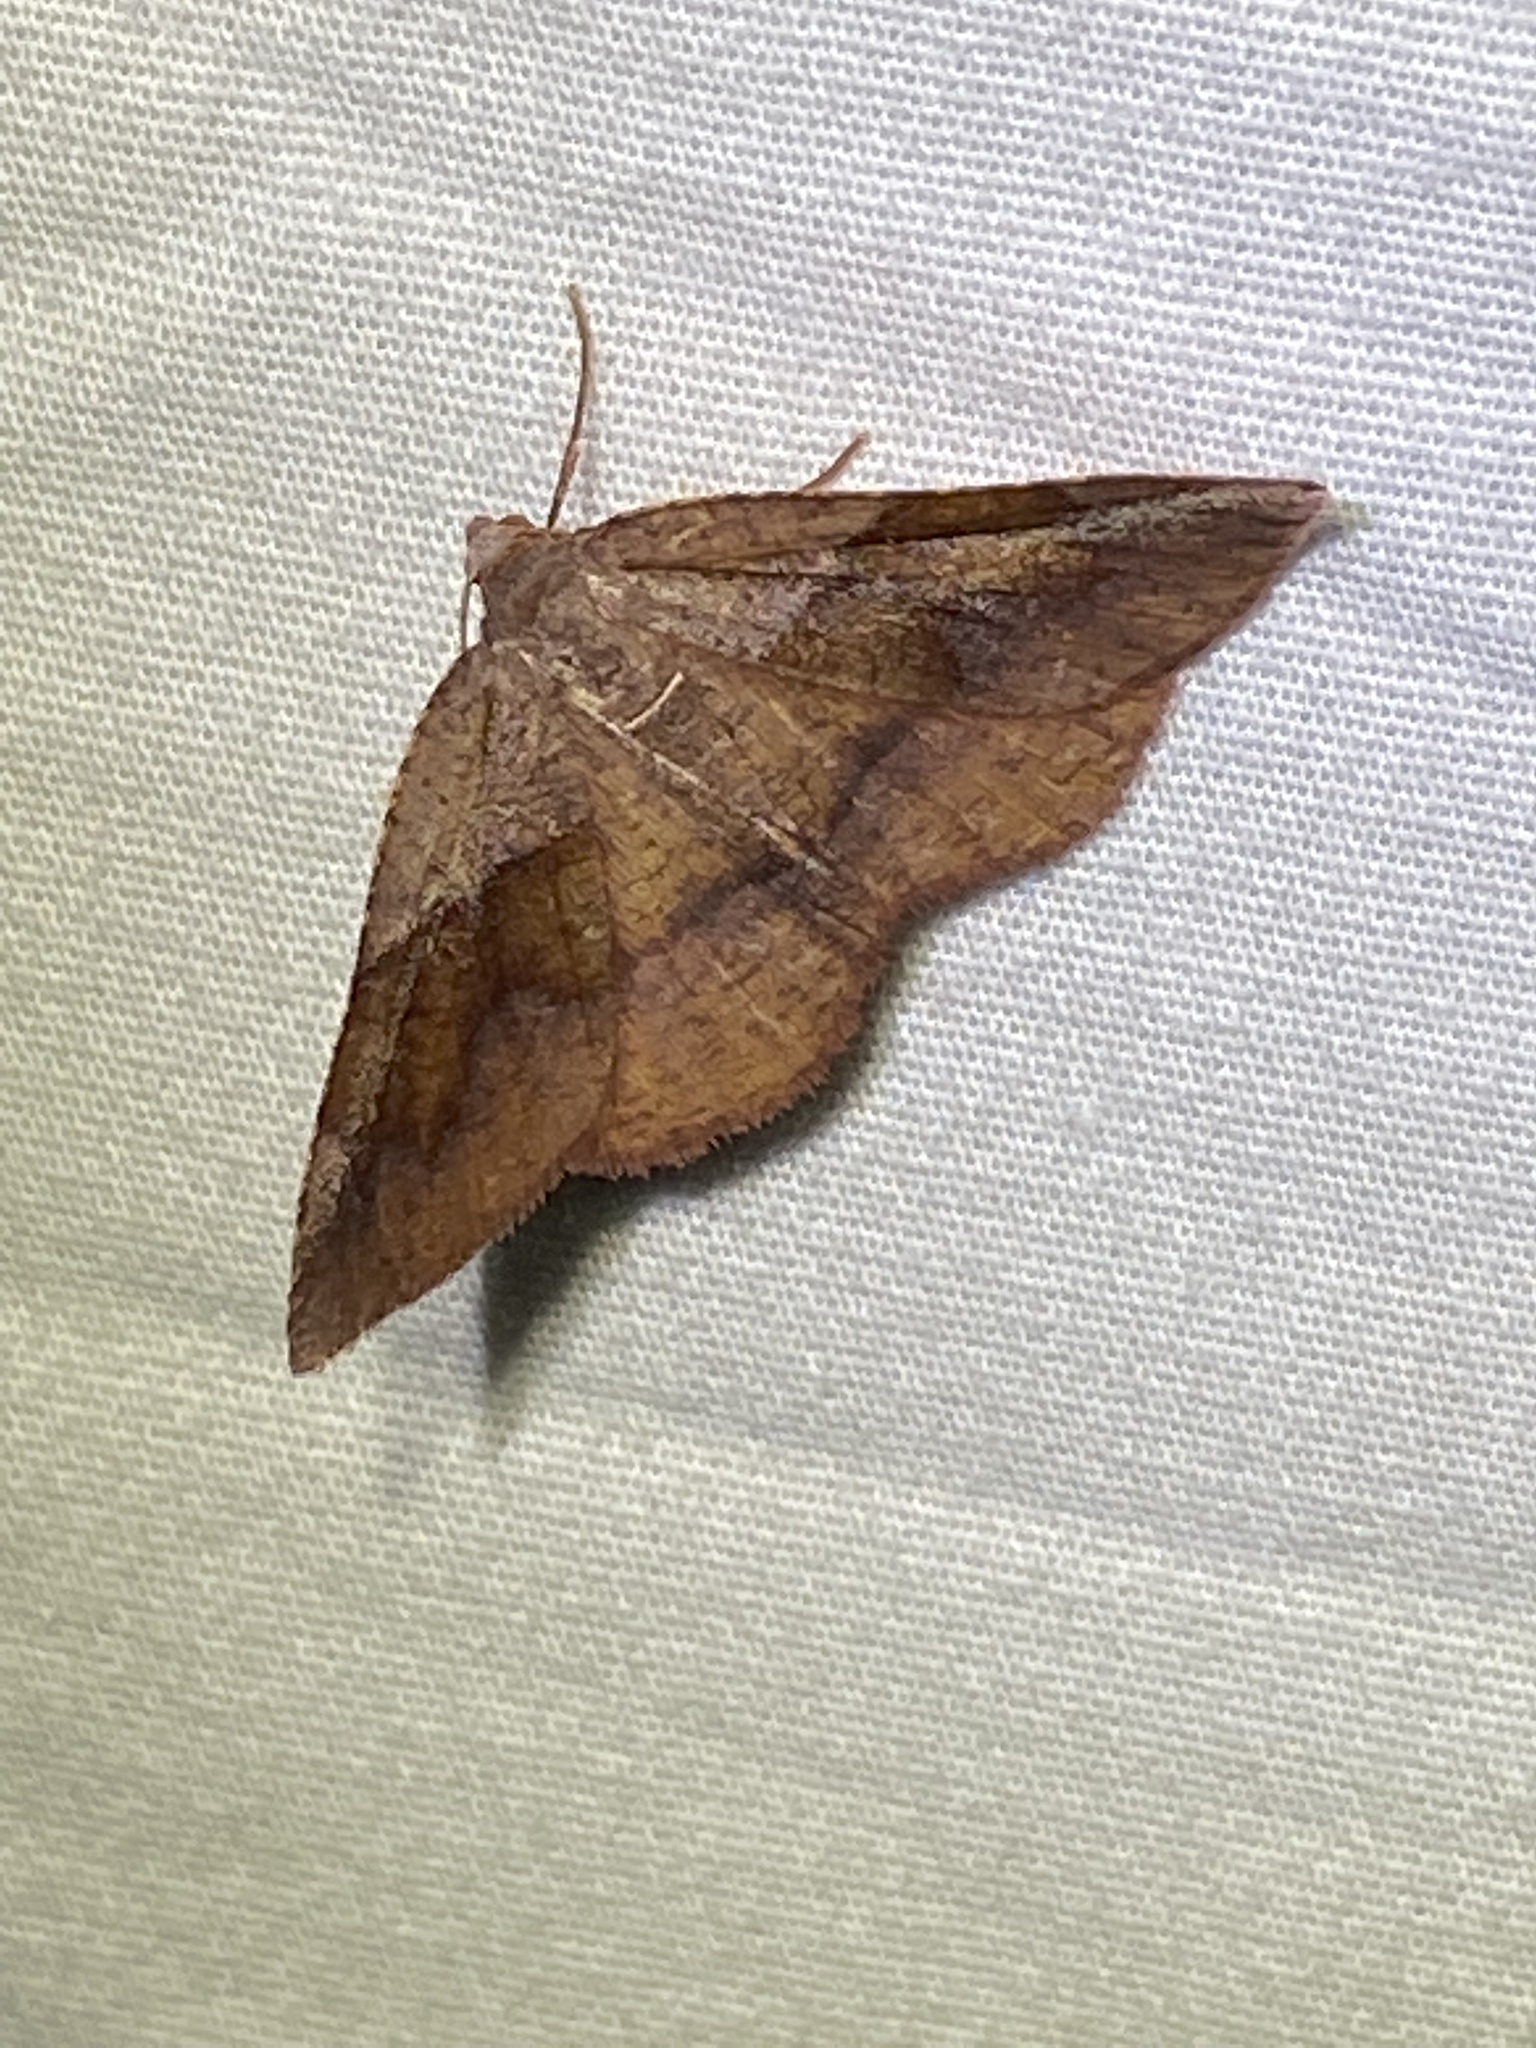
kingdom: Animalia
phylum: Arthropoda
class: Insecta
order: Lepidoptera
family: Geometridae
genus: Plagodis
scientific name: Plagodis pulveraria
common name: Barred umber
